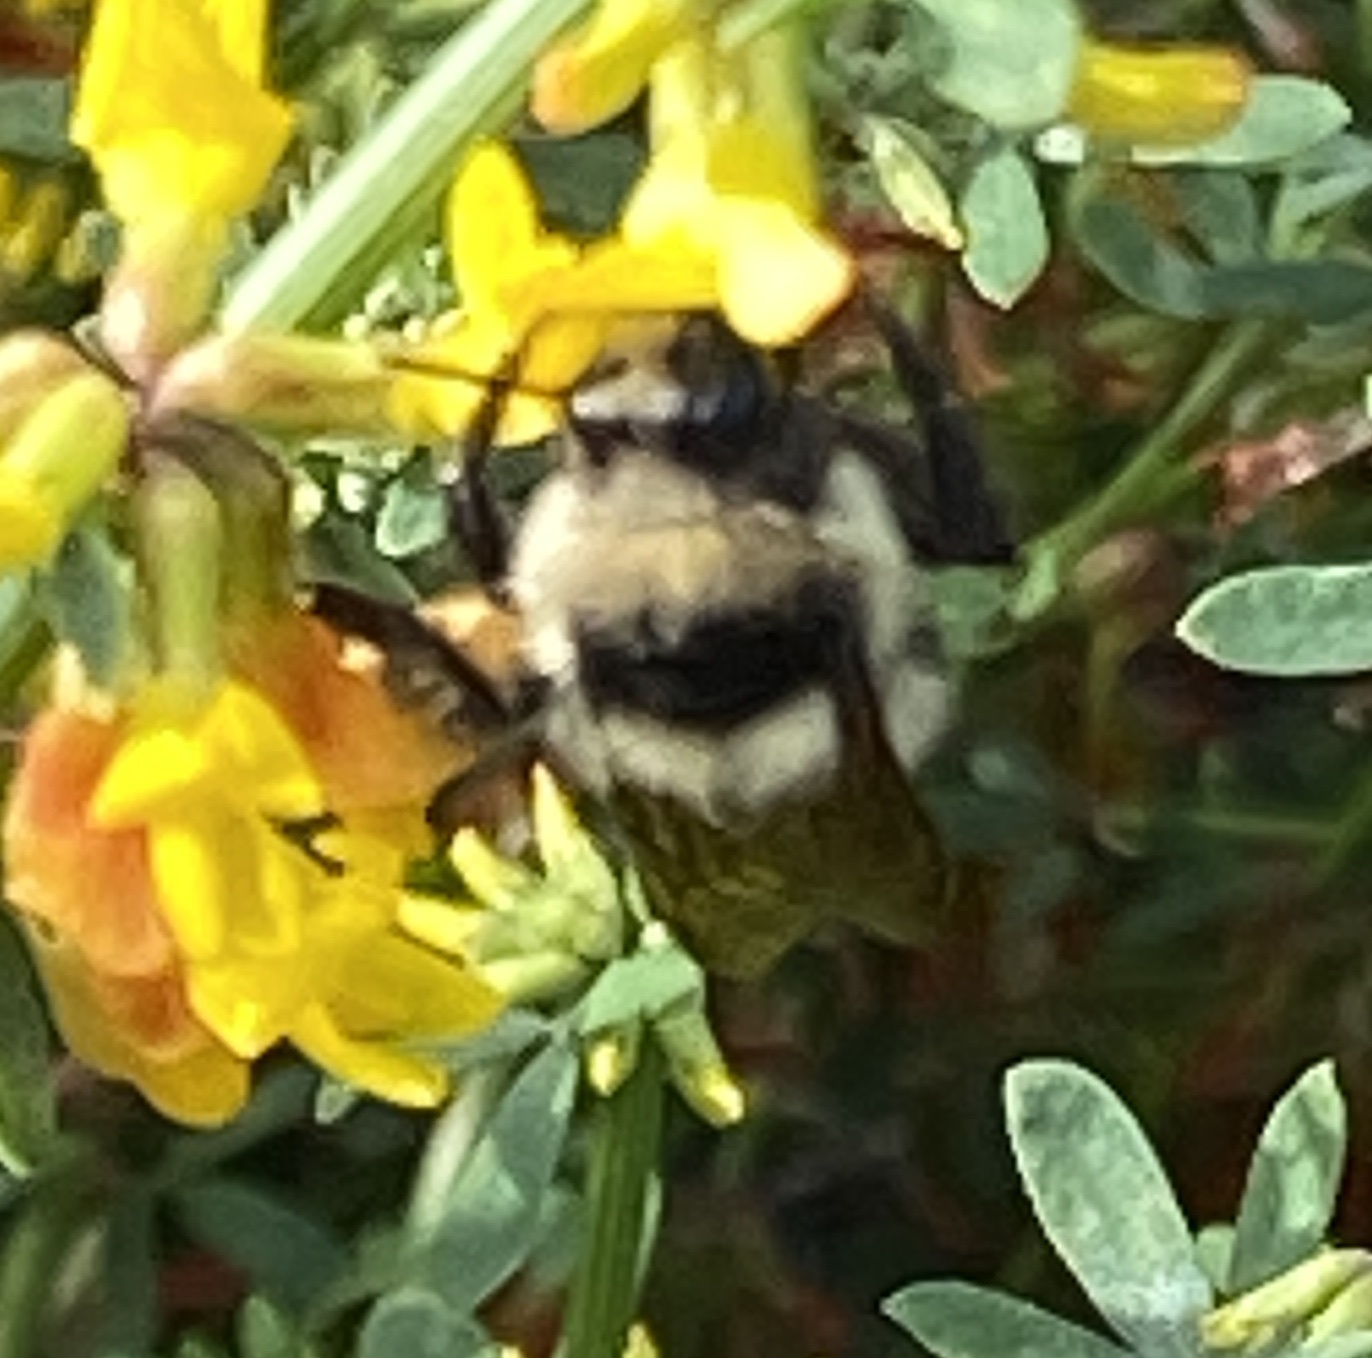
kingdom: Animalia
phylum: Arthropoda
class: Insecta
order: Hymenoptera
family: Apidae
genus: Bombus
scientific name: Bombus melanopygus
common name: Black tail bumble bee
